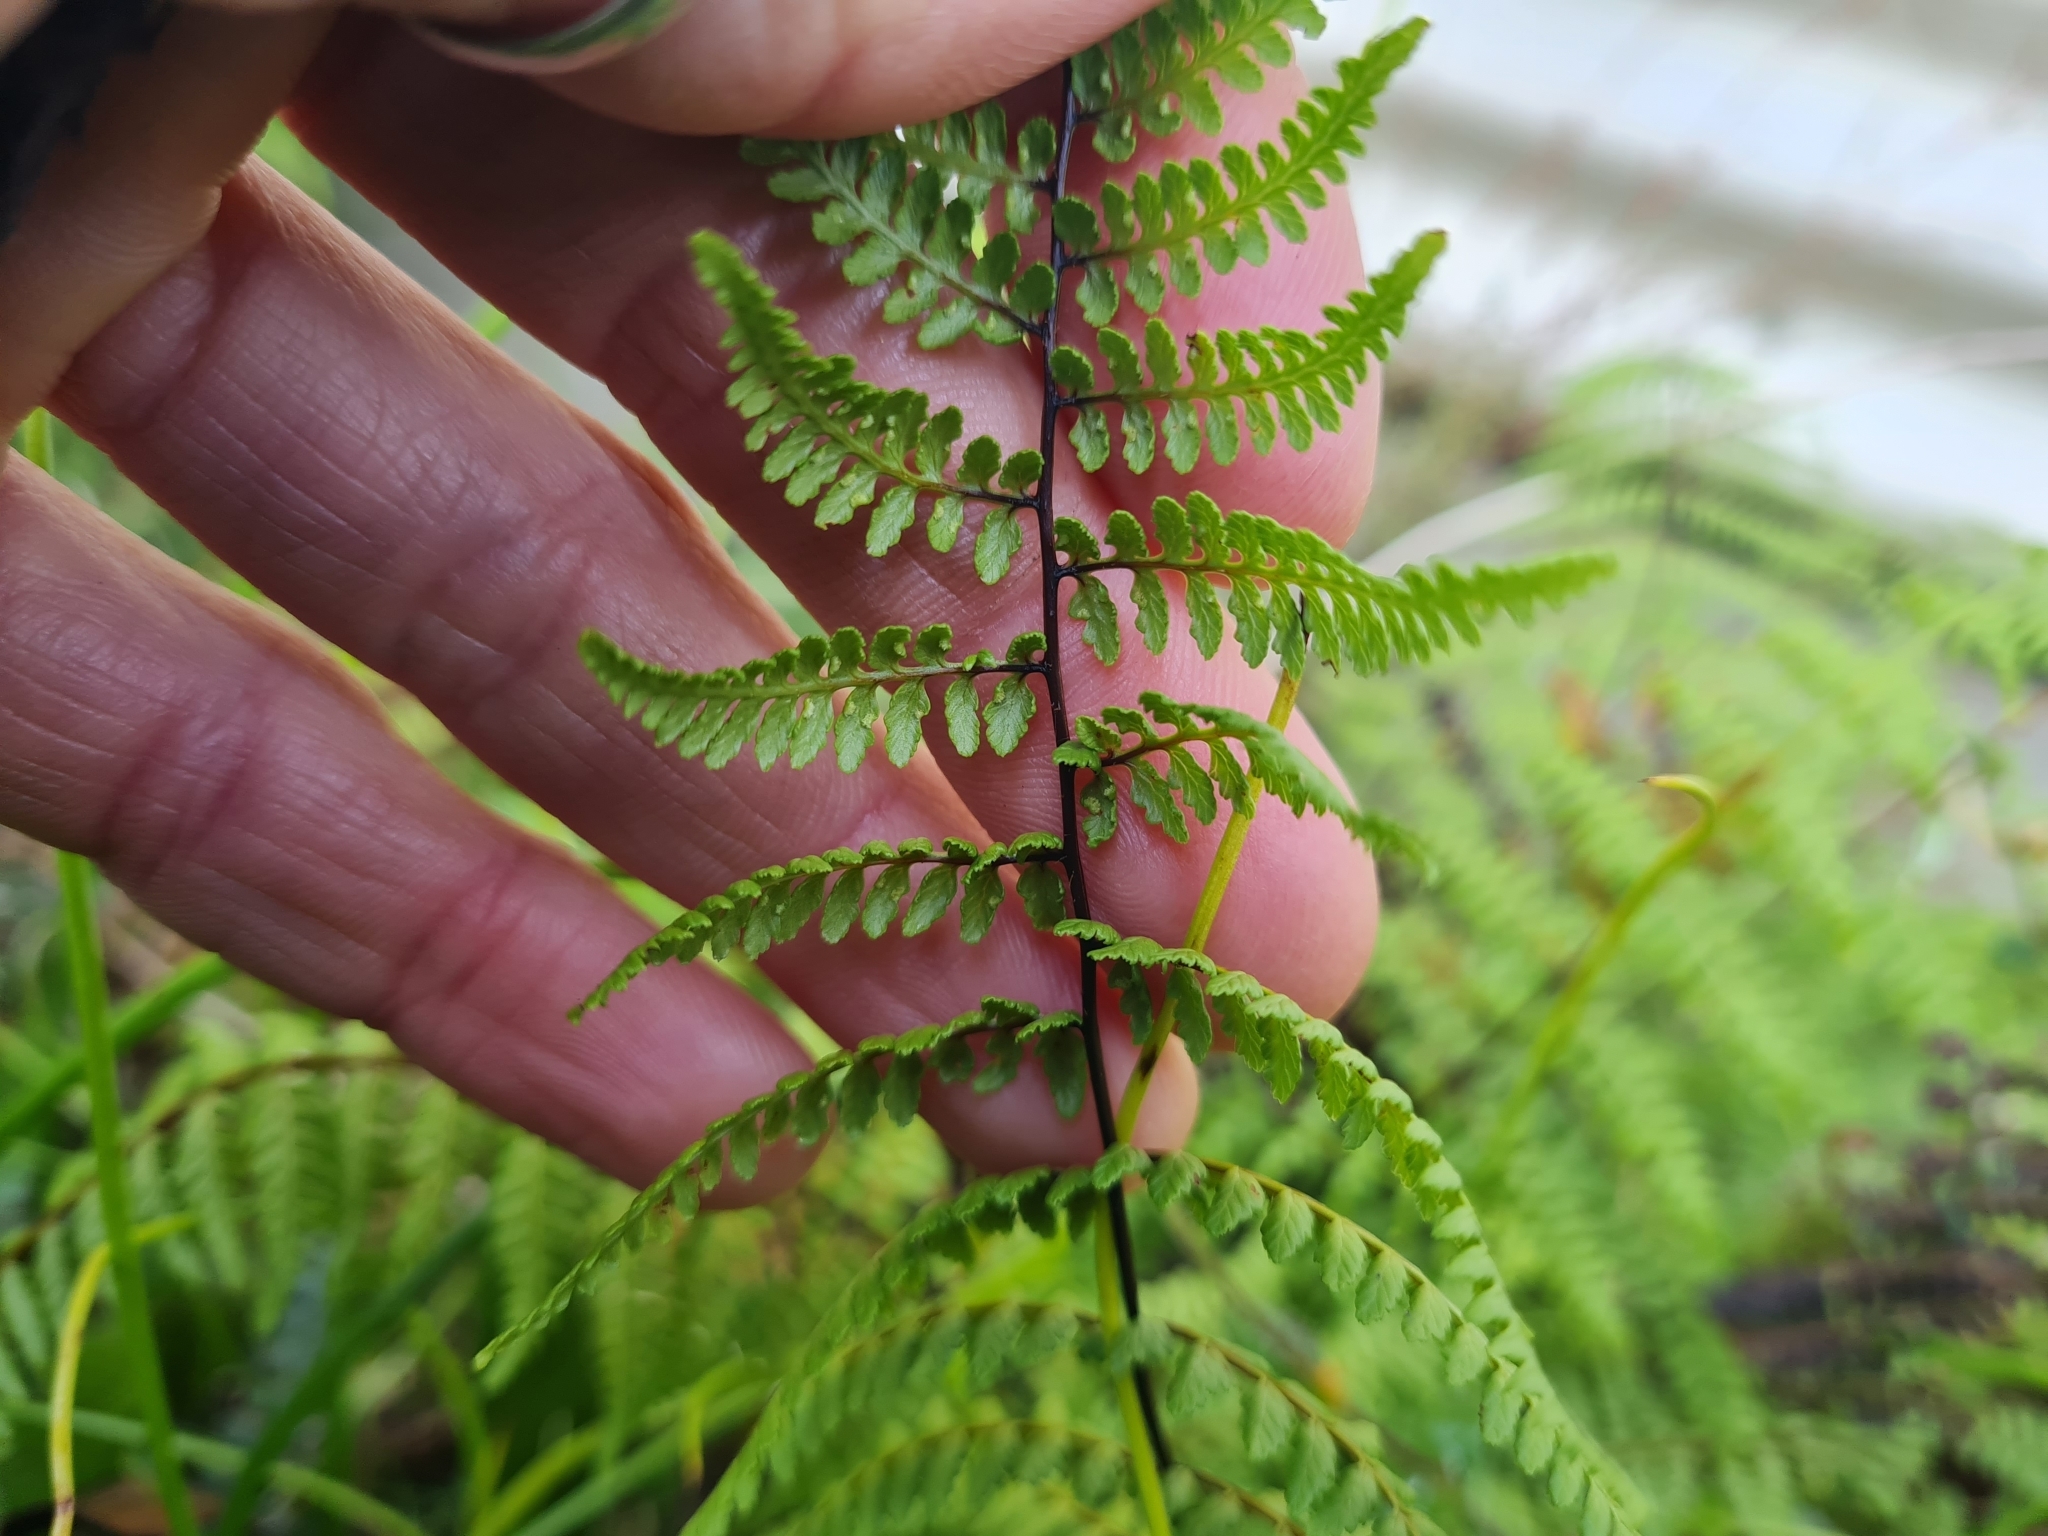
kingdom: Plantae
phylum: Tracheophyta
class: Polypodiopsida
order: Polypodiales
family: Dennstaedtiaceae
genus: Hiya
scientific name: Hiya distans
